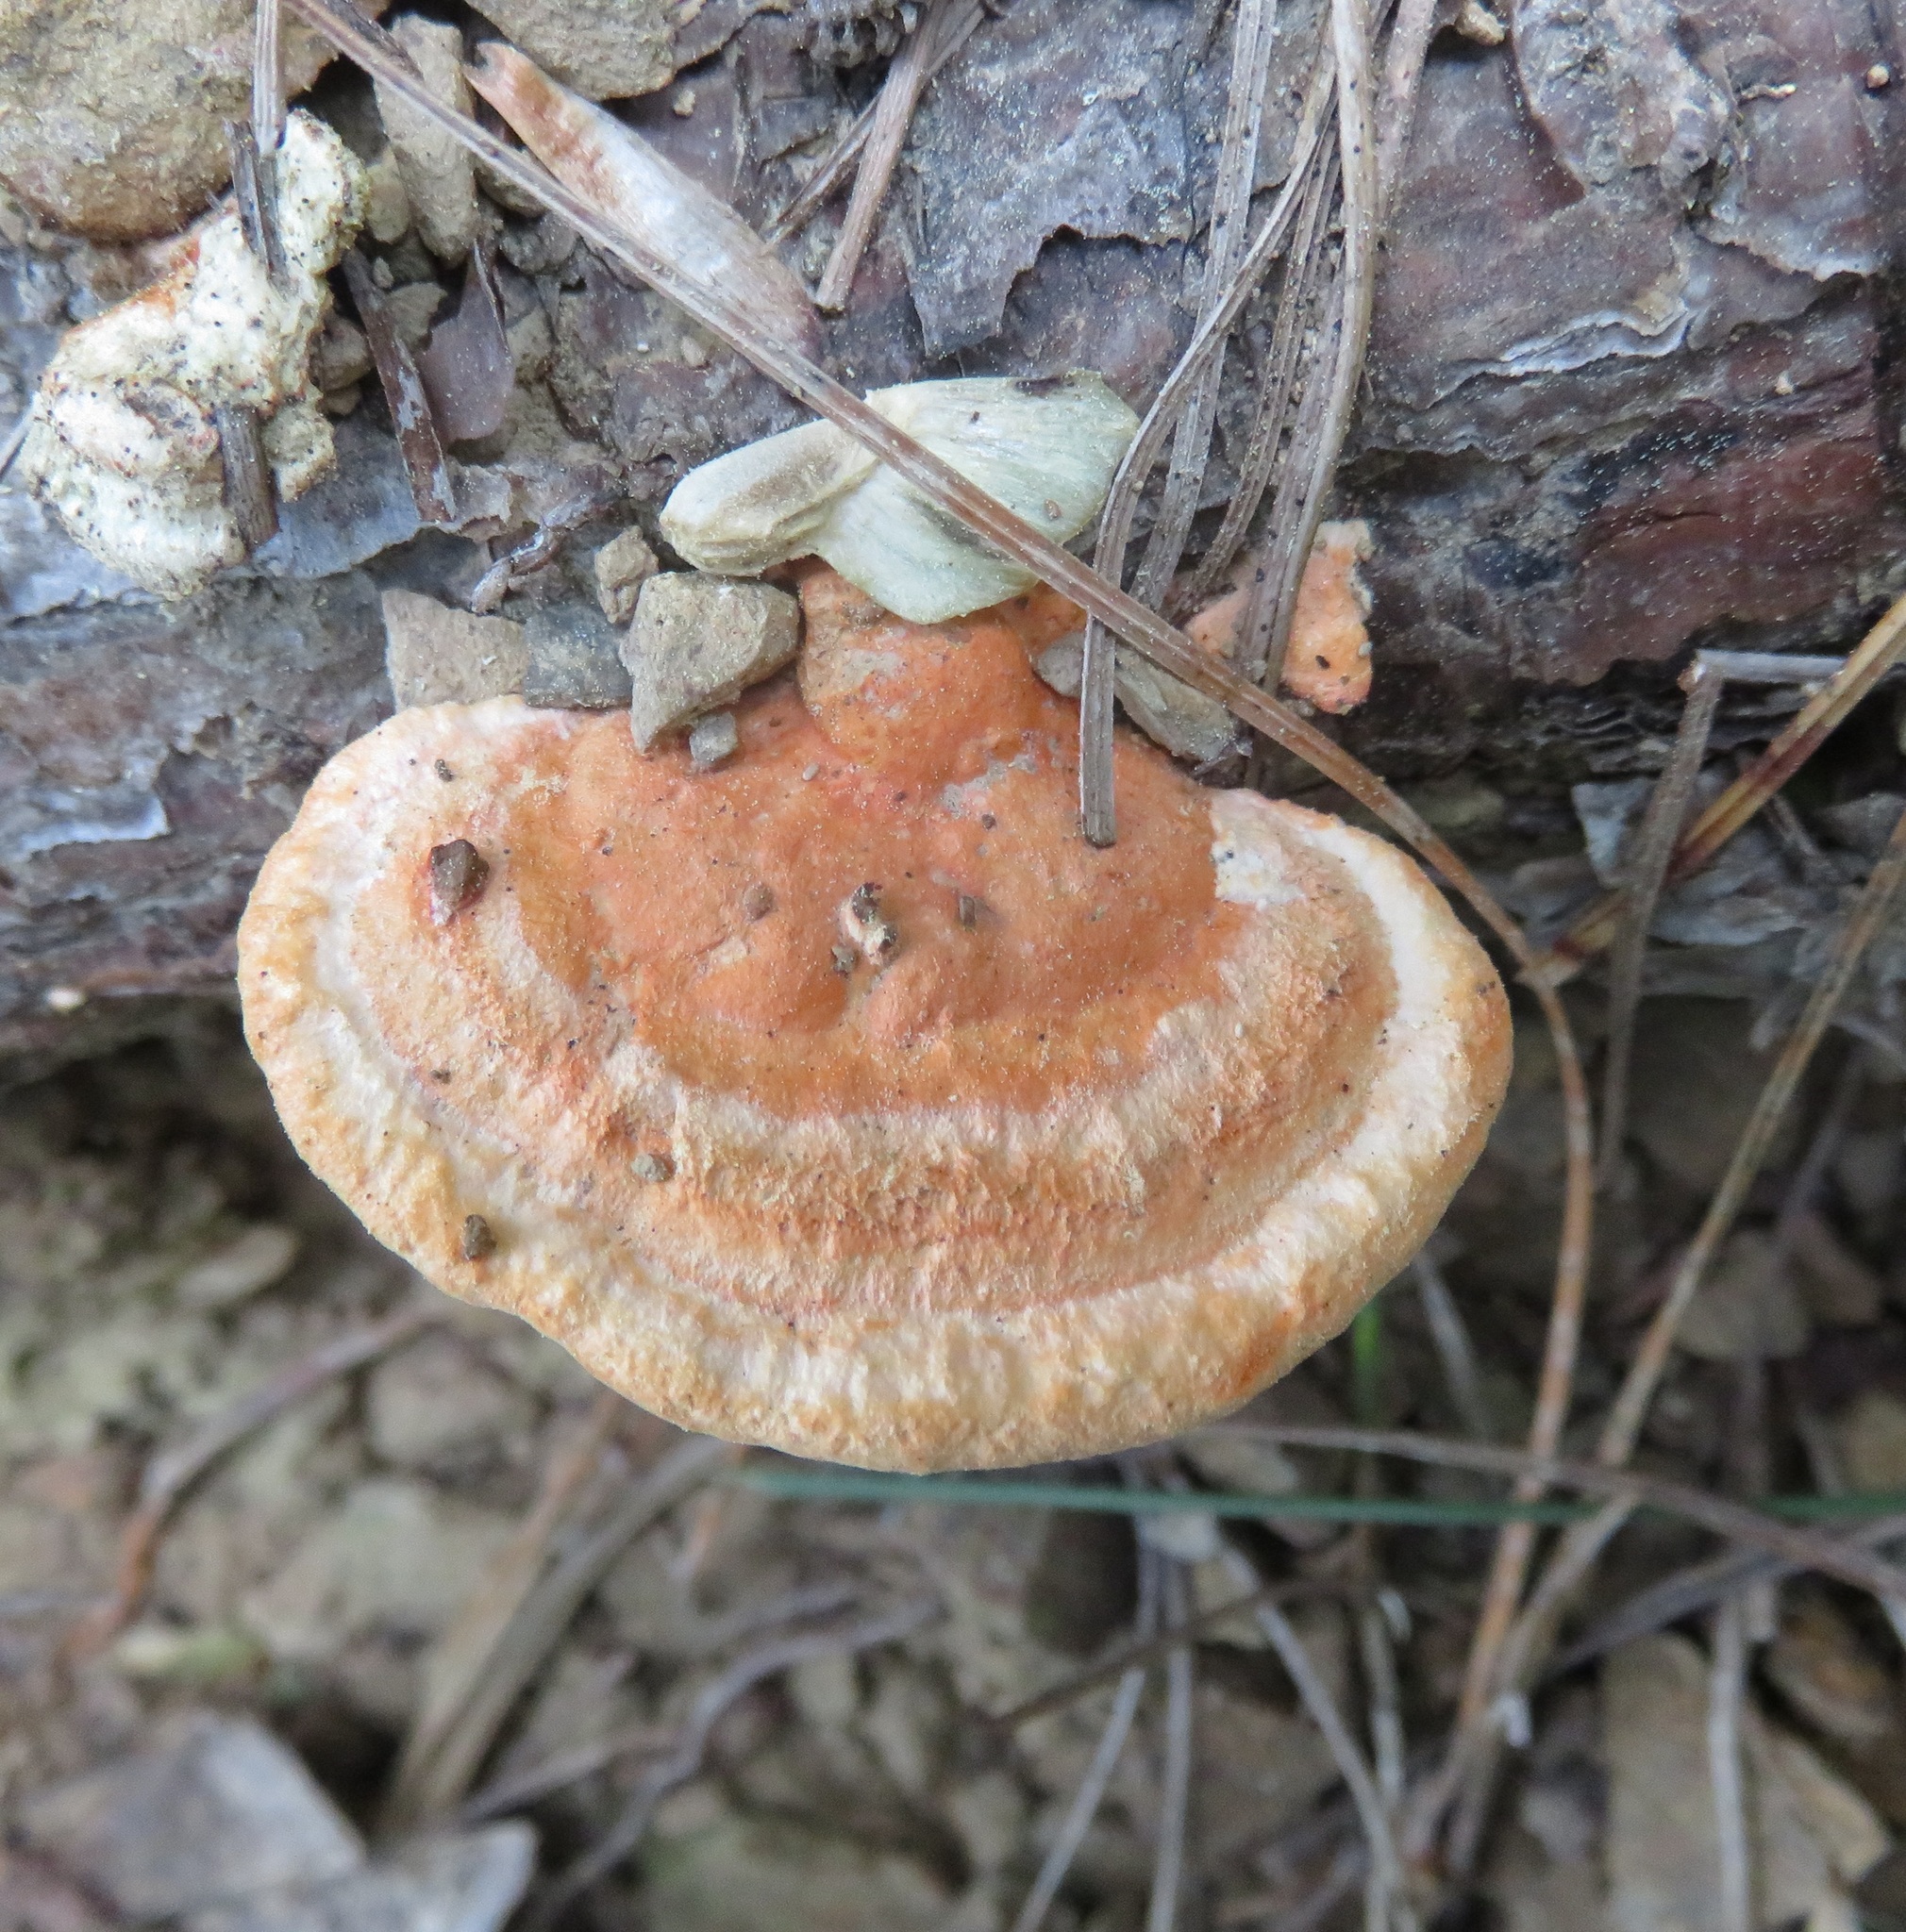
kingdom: Fungi
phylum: Basidiomycota
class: Agaricomycetes
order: Polyporales
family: Polyporaceae
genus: Trametes
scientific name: Trametes coccinea
